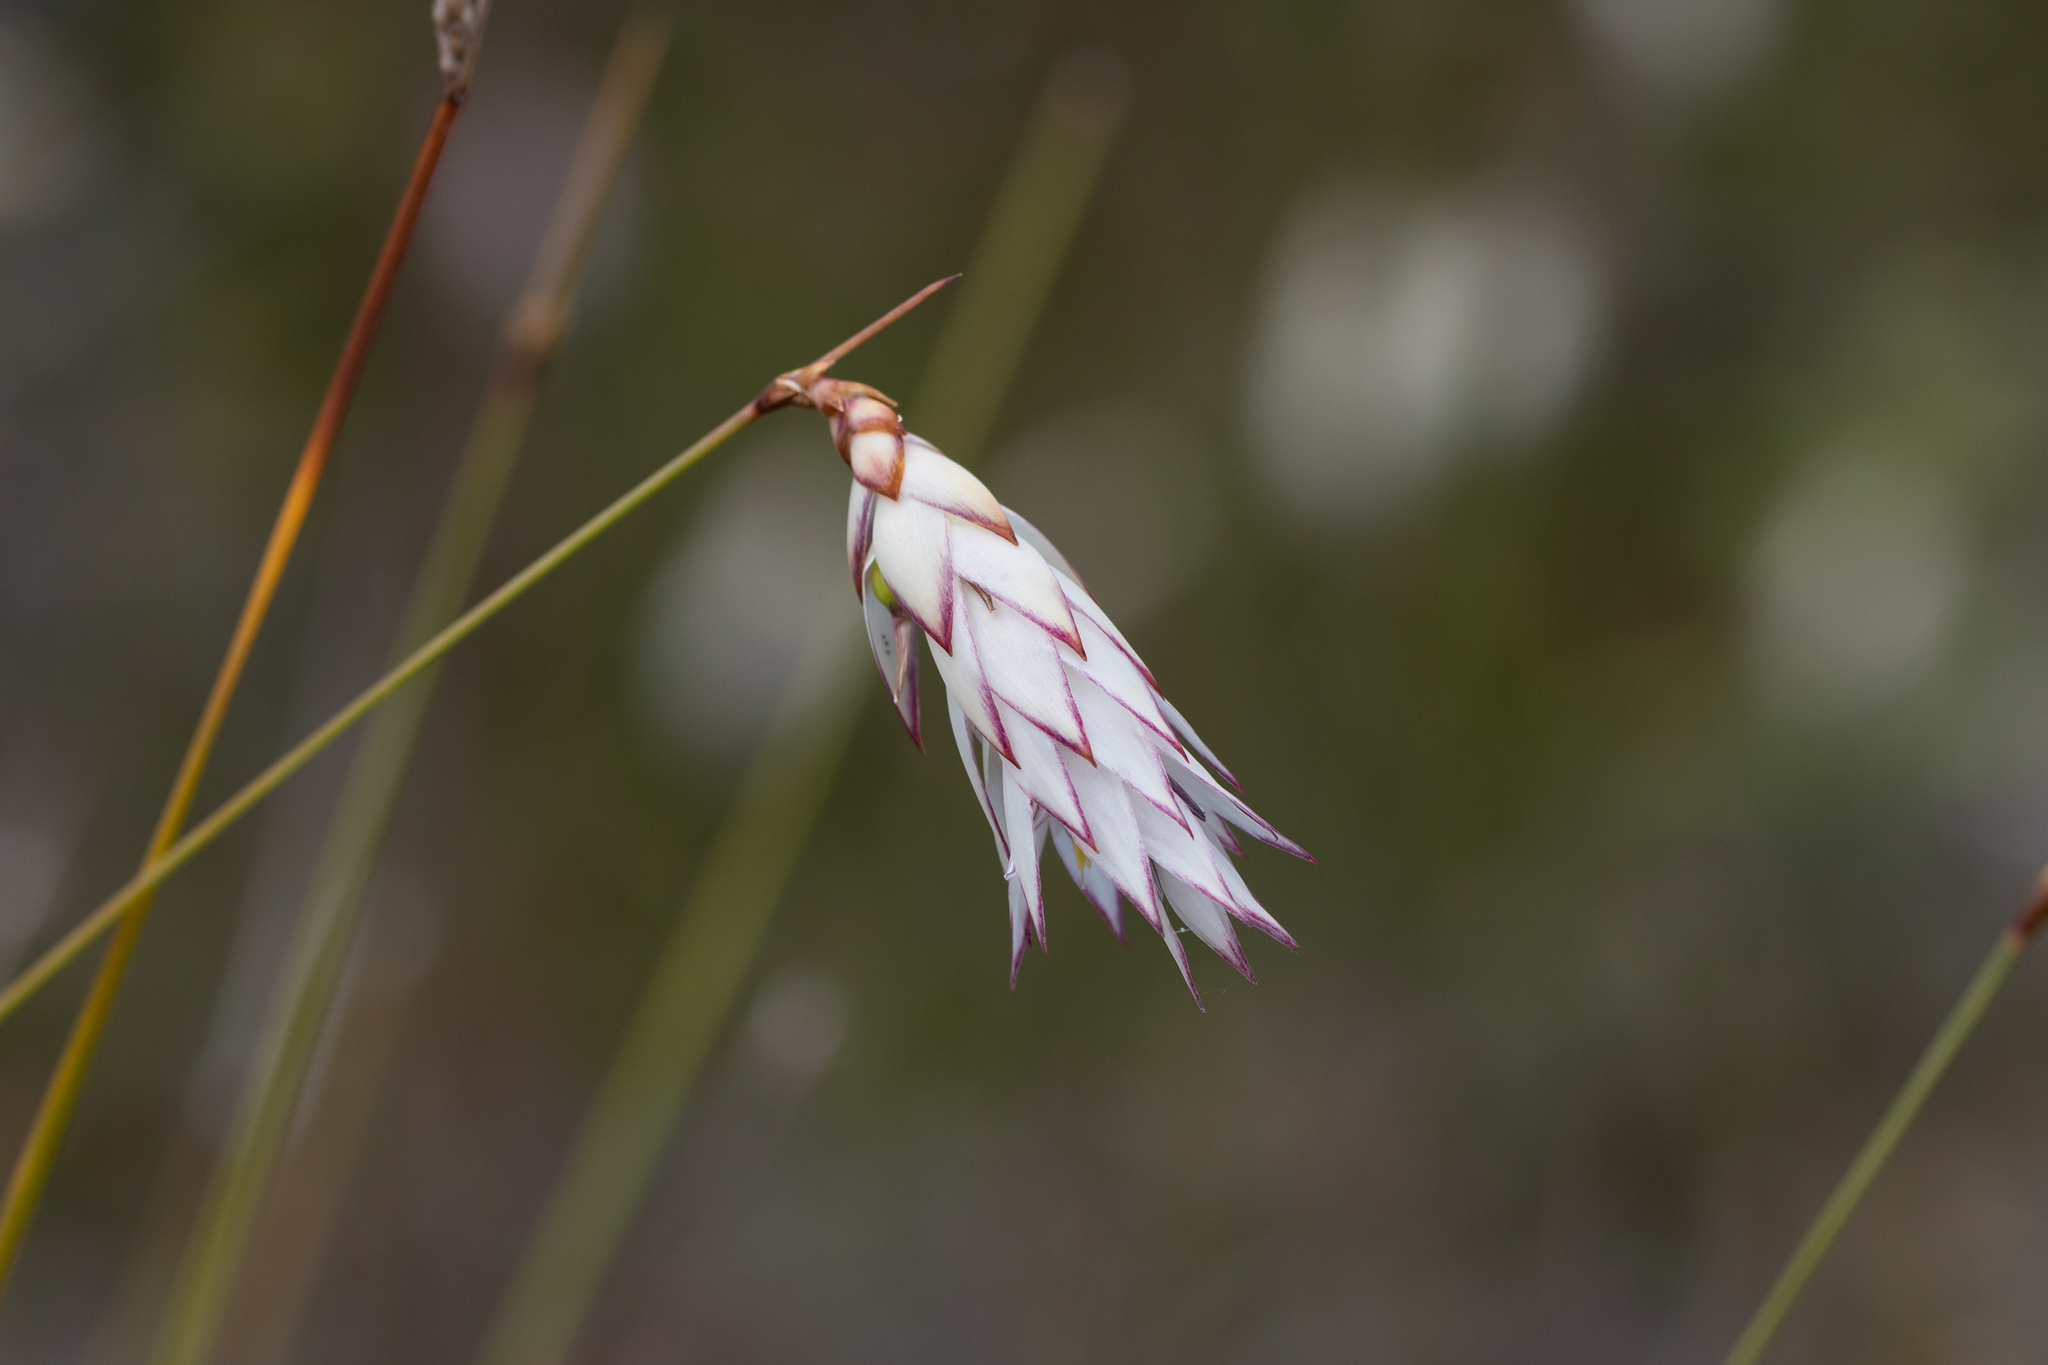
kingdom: Plantae
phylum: Tracheophyta
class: Liliopsida
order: Asparagales
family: Asphodelaceae
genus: Johnsonia
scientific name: Johnsonia lupulina
